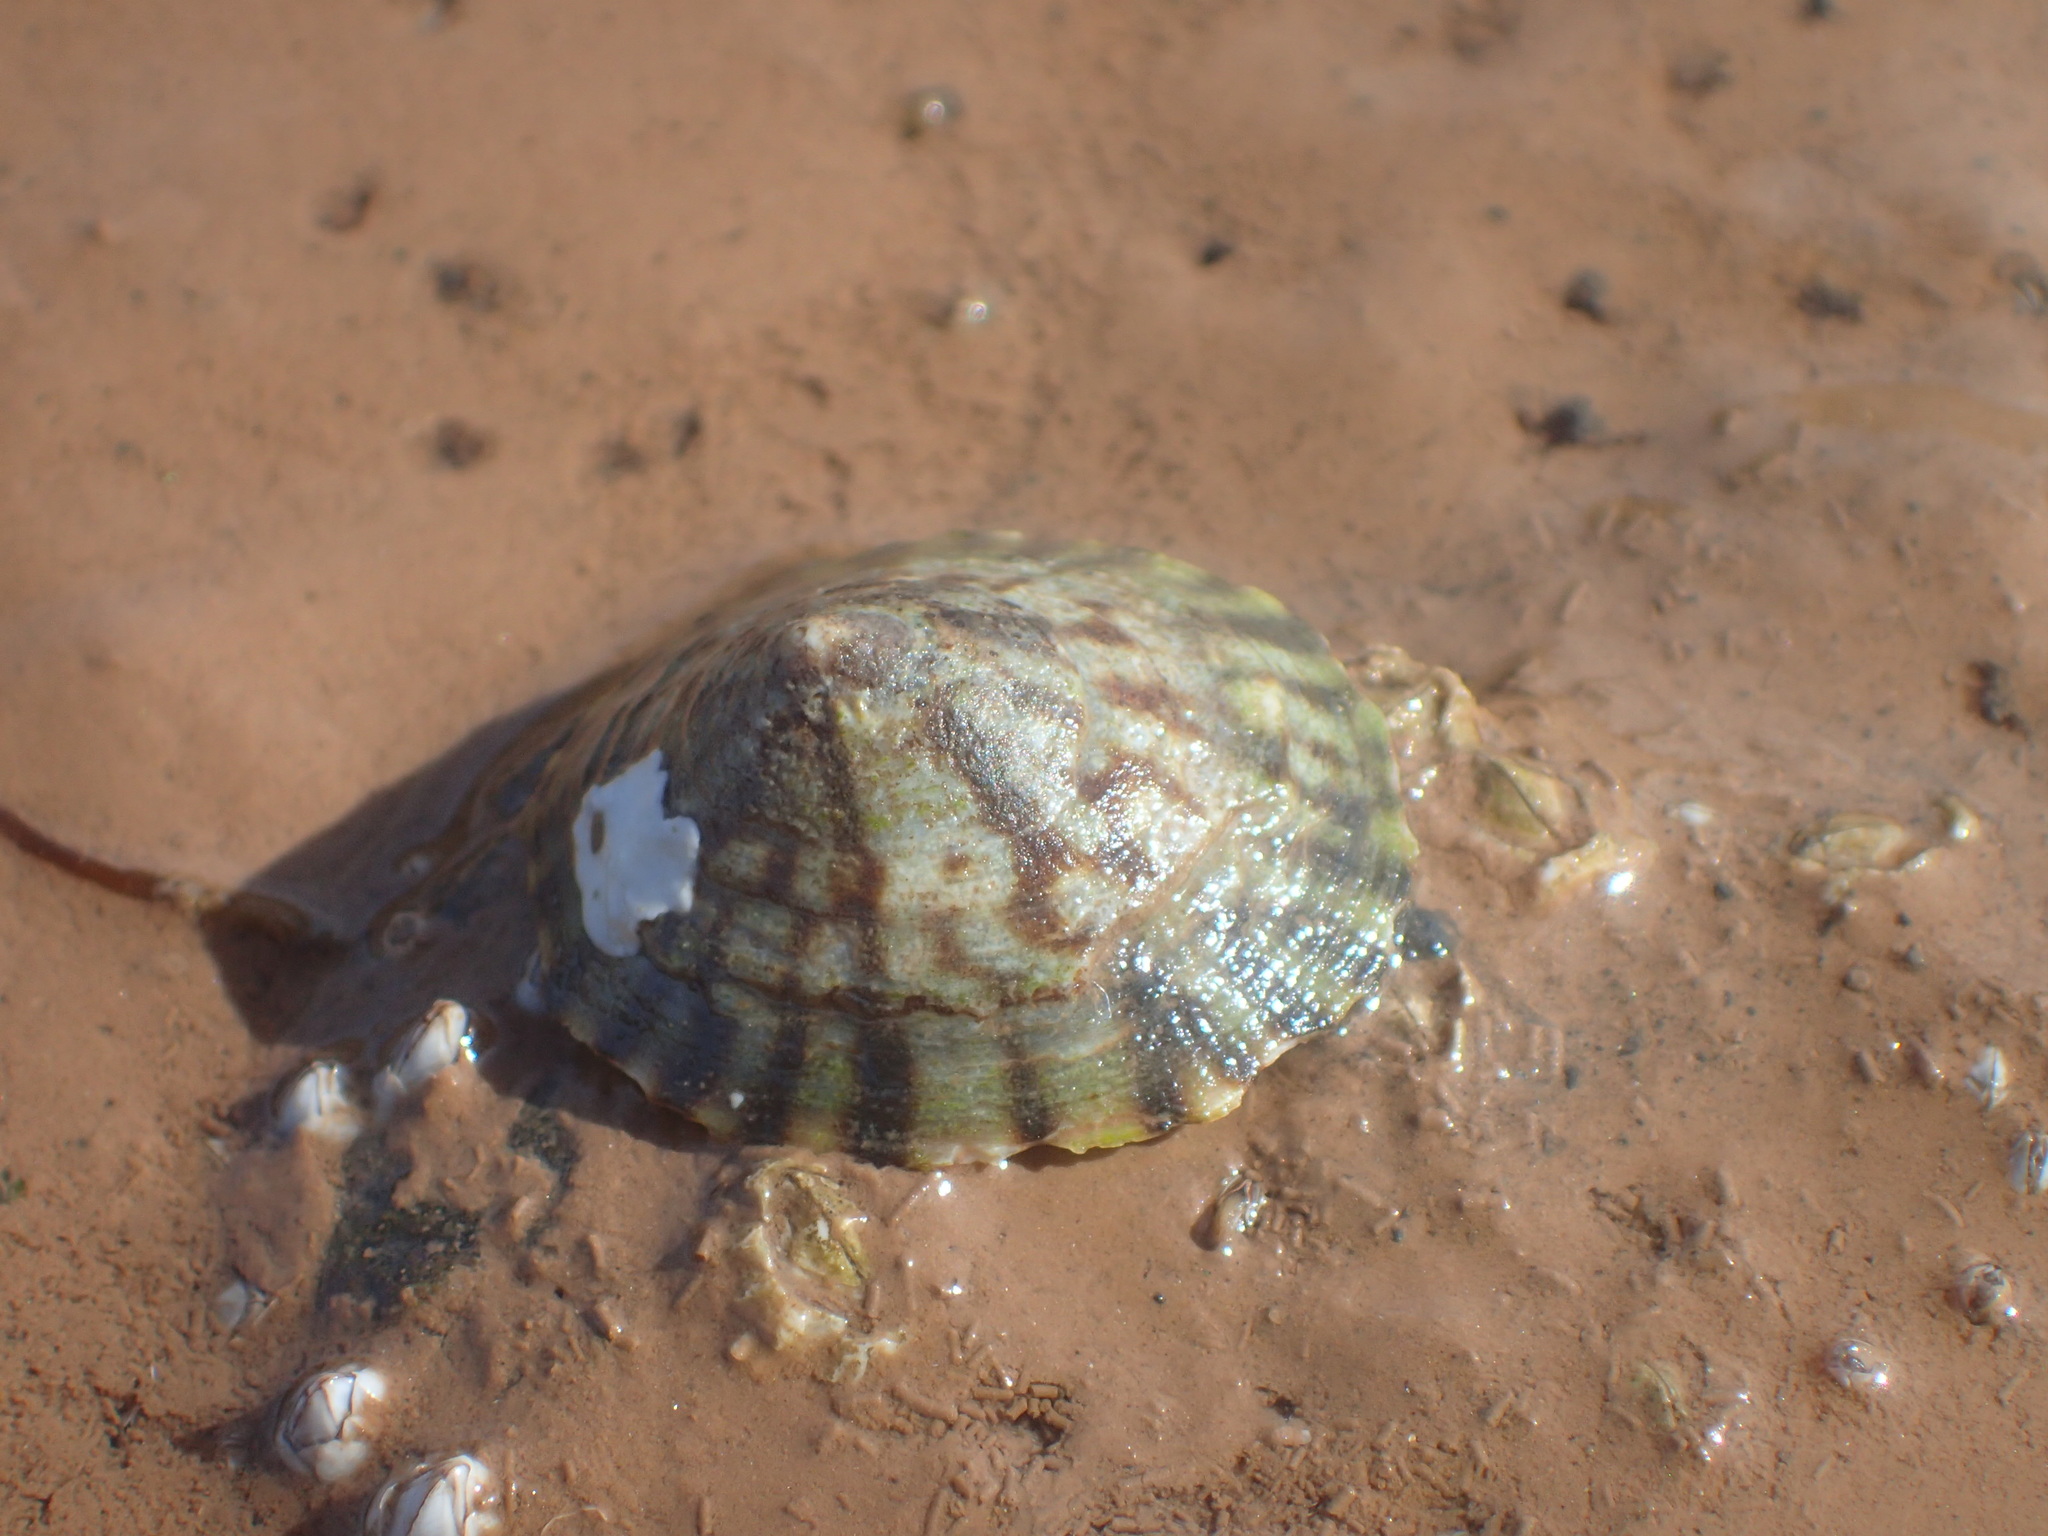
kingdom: Animalia
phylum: Mollusca
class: Gastropoda
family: Lottiidae
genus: Testudinalia
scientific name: Testudinalia testudinalis
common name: Common tortoiseshell limpet
